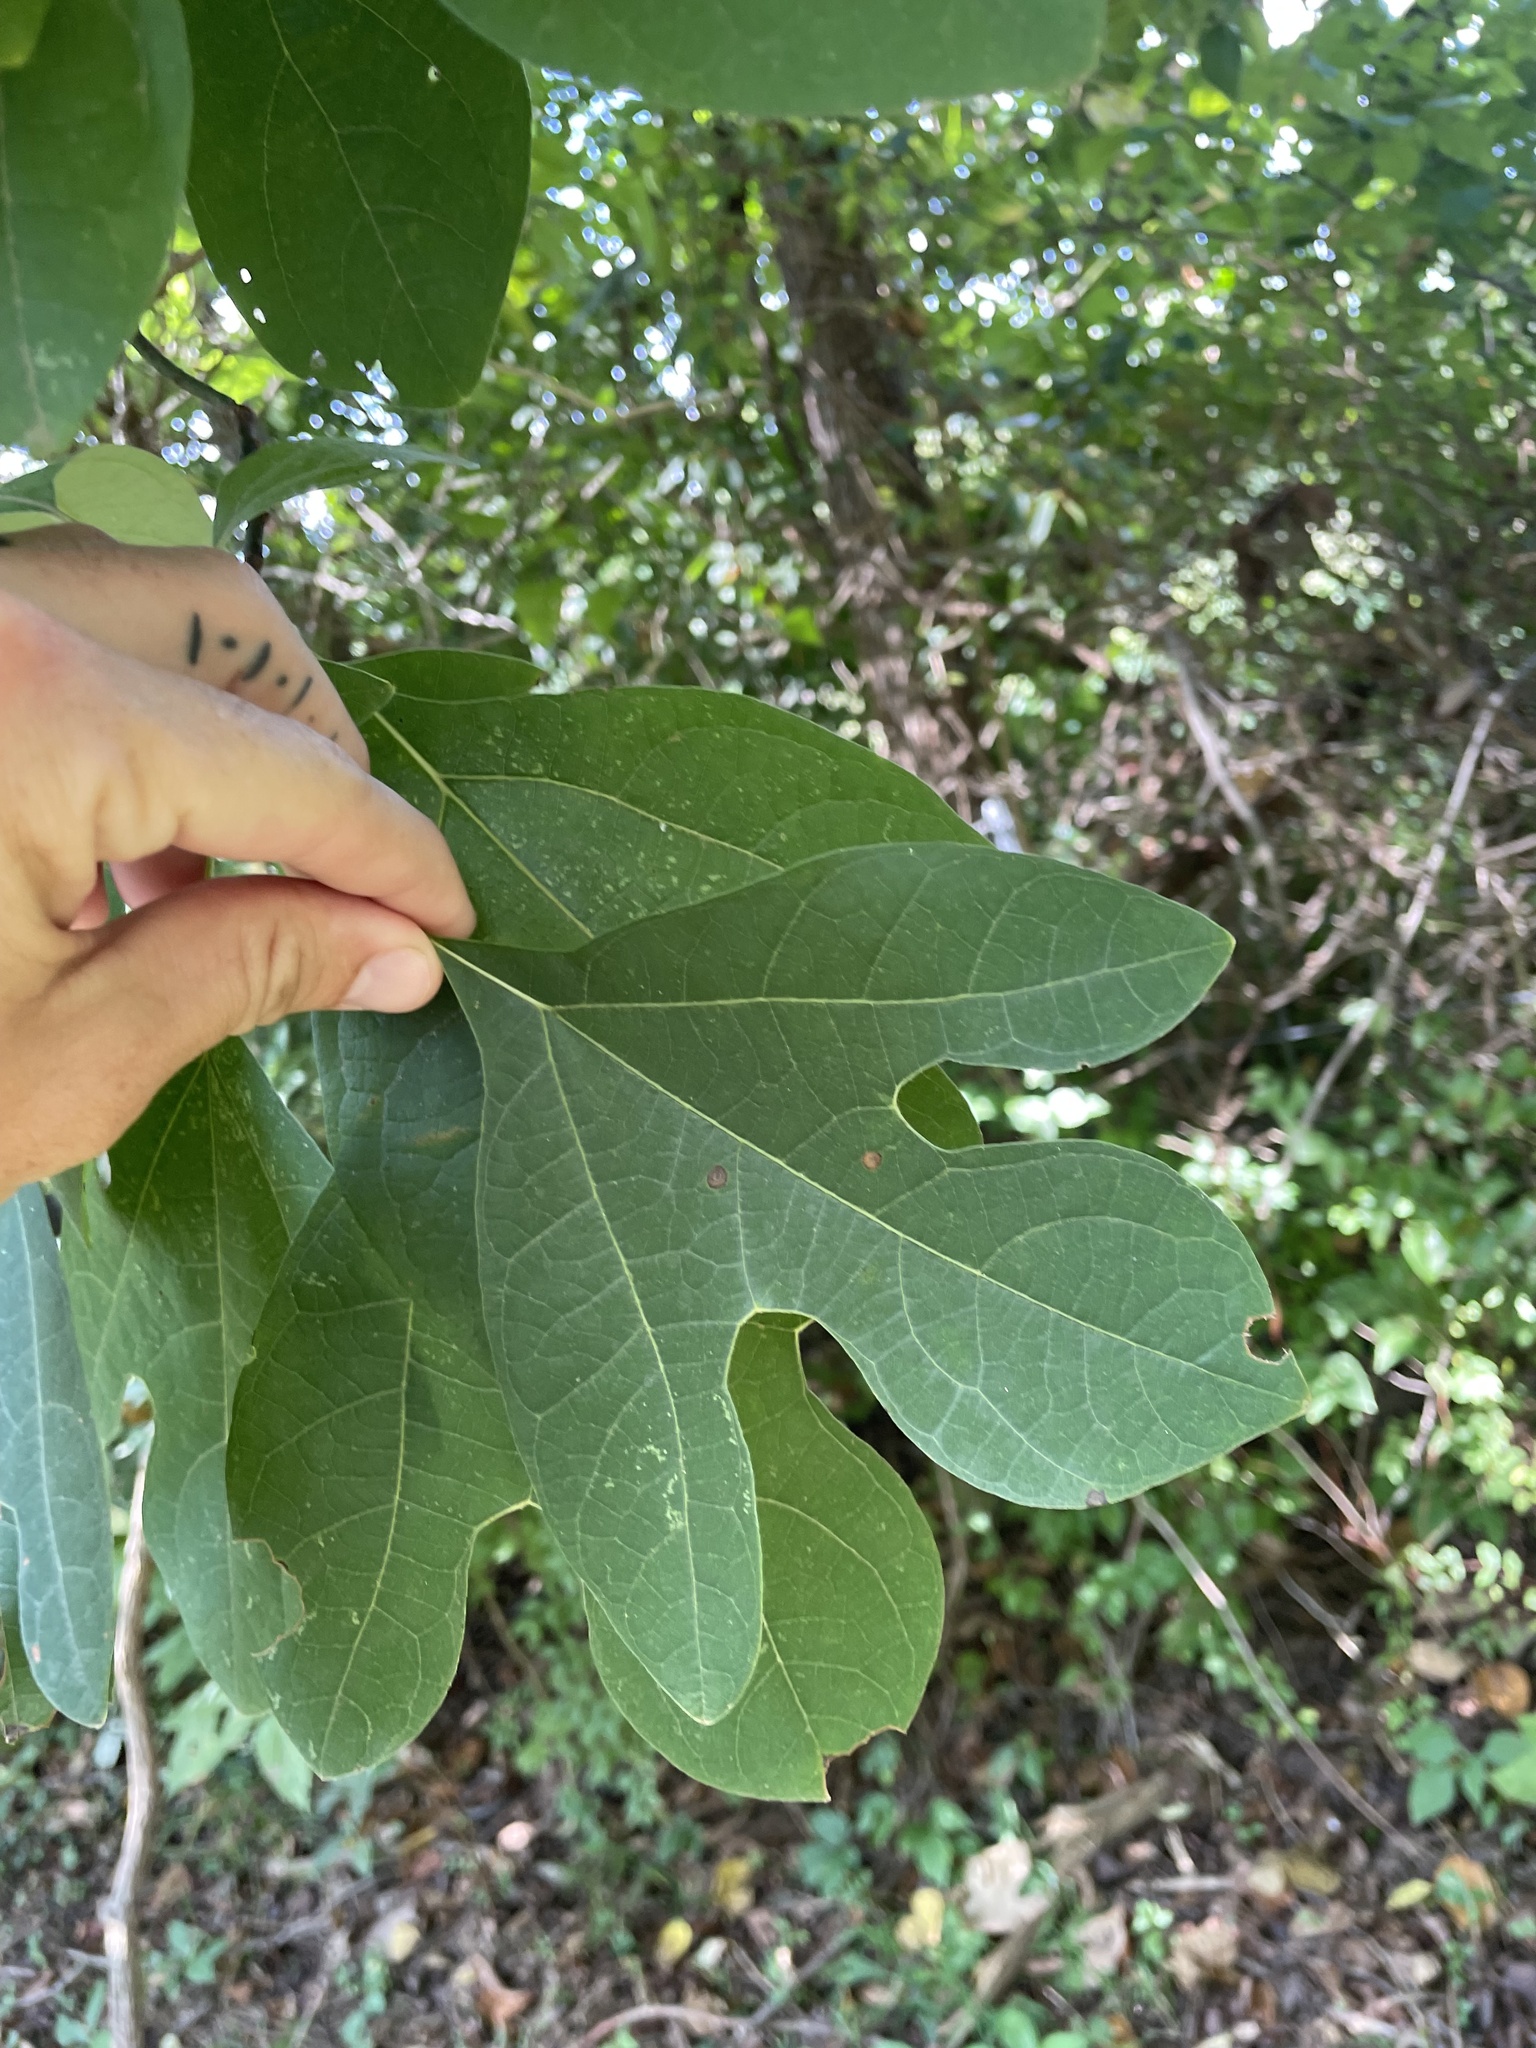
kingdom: Plantae
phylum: Tracheophyta
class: Magnoliopsida
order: Laurales
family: Lauraceae
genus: Sassafras
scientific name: Sassafras albidum
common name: Sassafras
